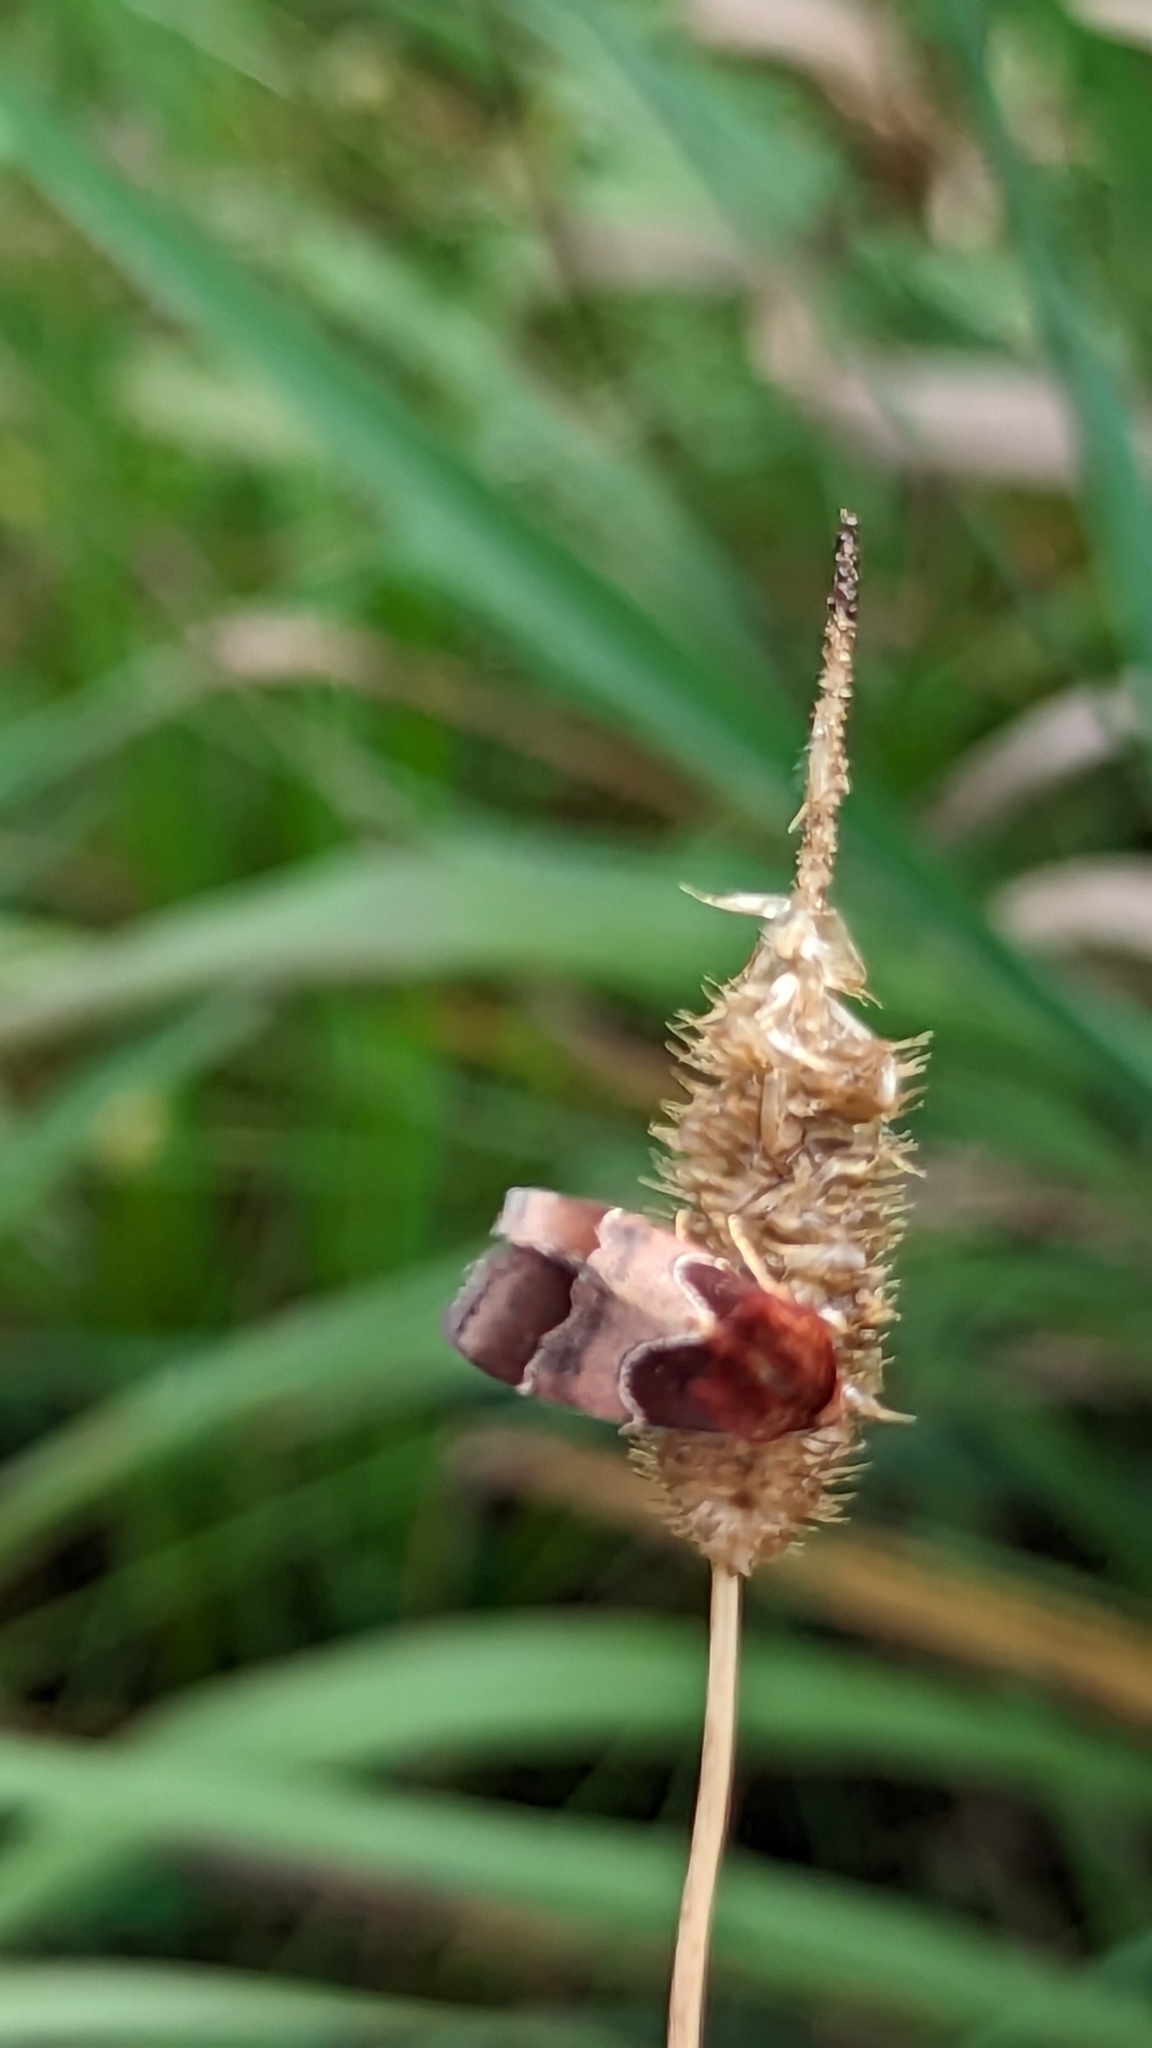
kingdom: Animalia
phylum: Arthropoda
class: Insecta
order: Lepidoptera
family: Noctuidae
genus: Schinia
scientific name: Schinia arcigera
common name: Arcigera flower moth
